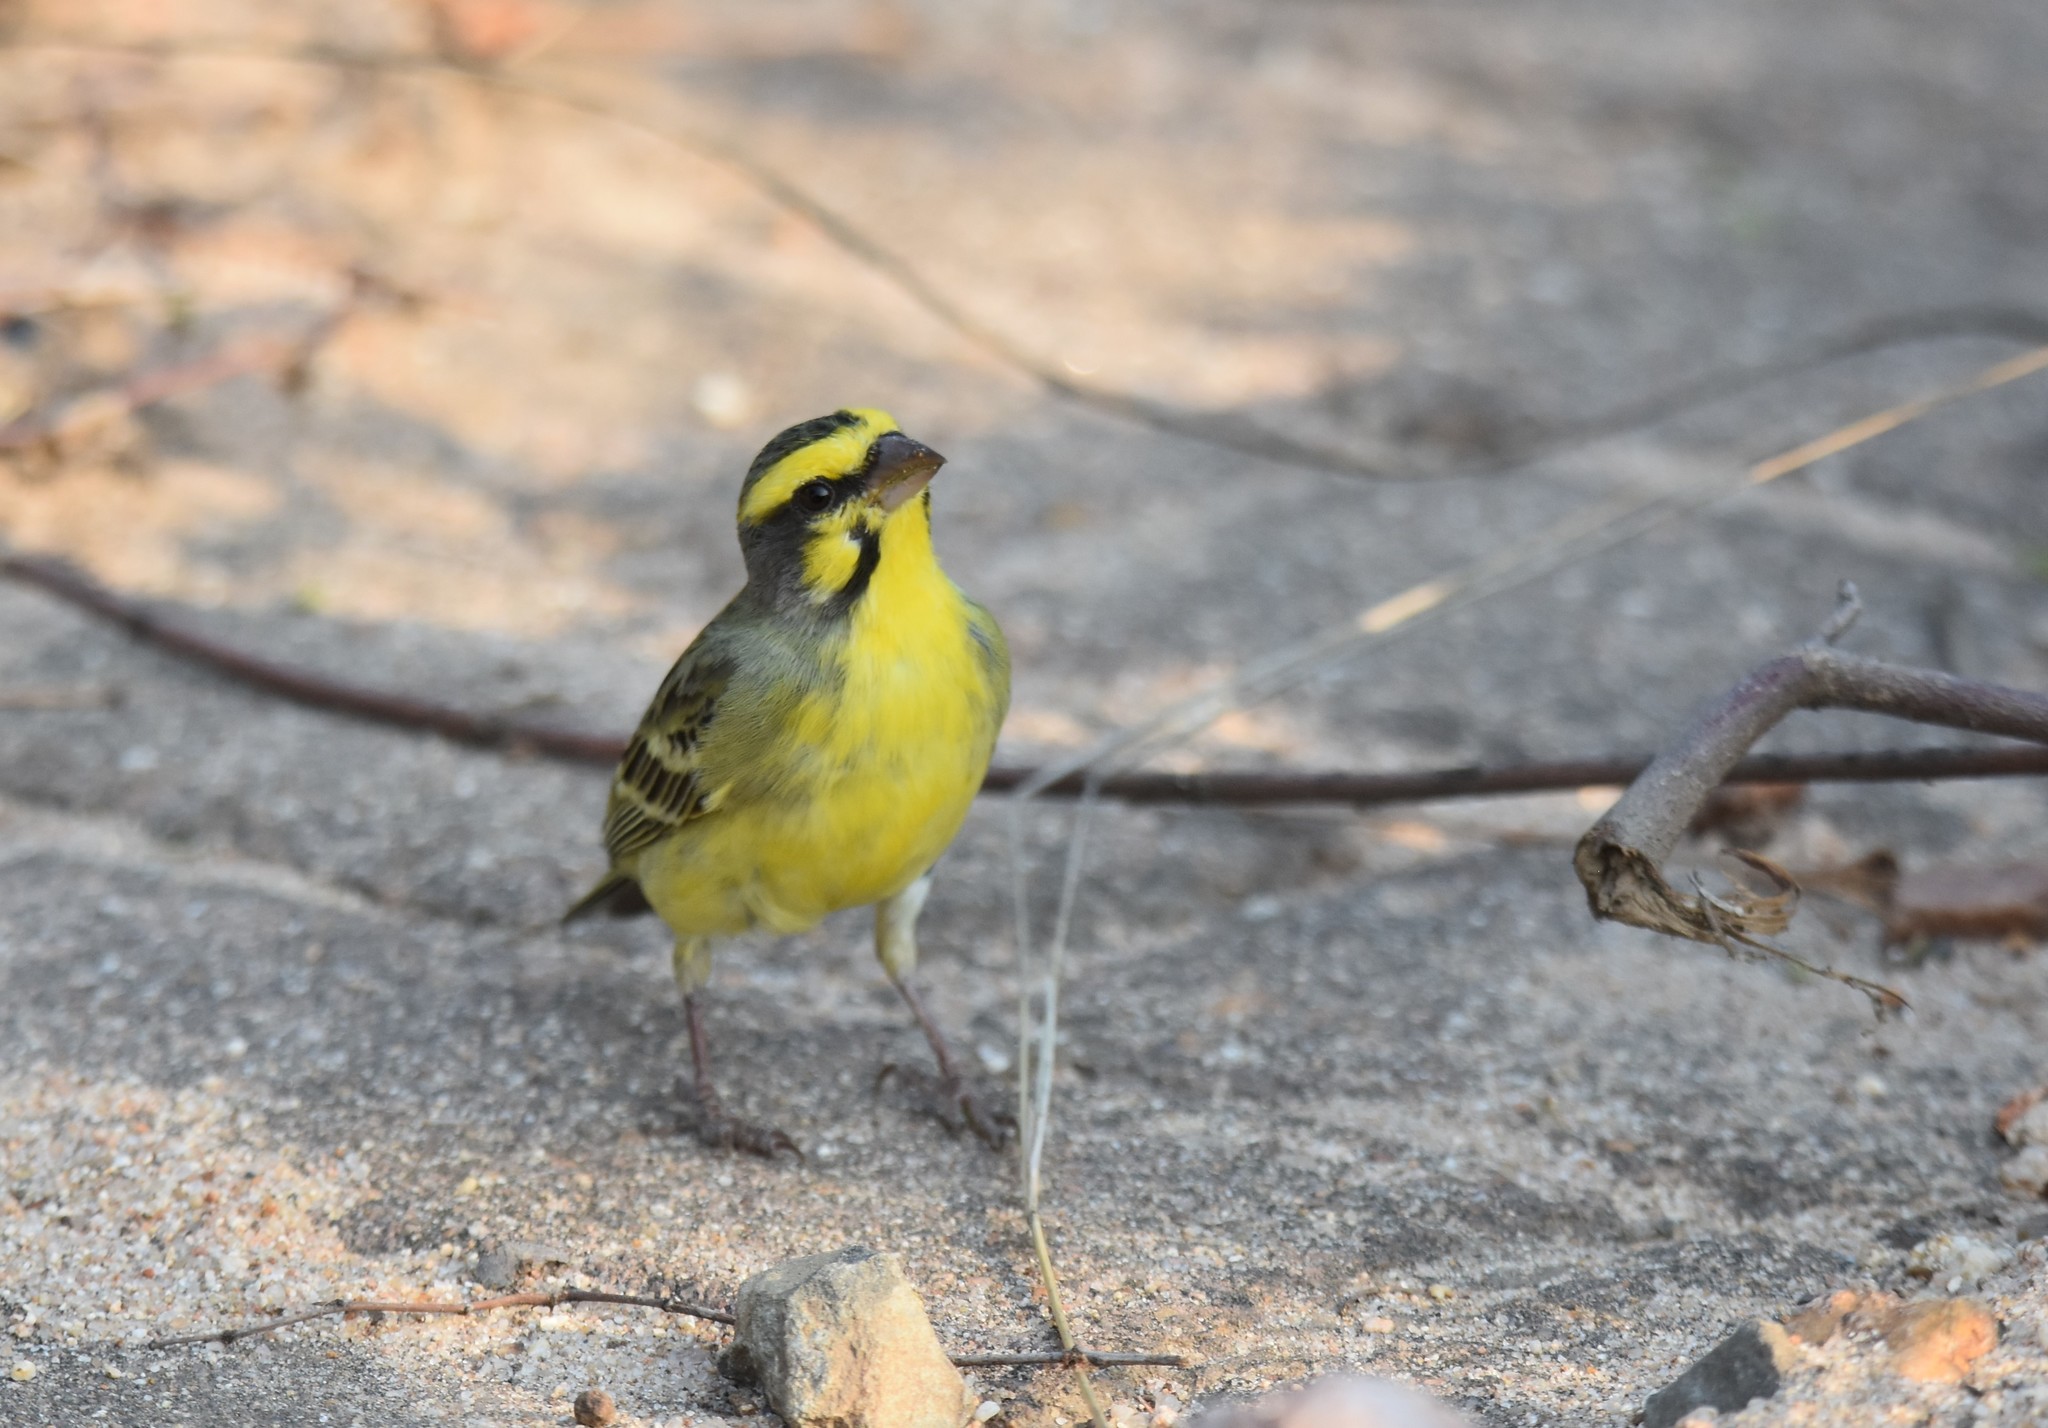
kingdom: Animalia
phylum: Chordata
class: Aves
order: Passeriformes
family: Fringillidae
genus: Crithagra
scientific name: Crithagra mozambica
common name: Yellow-fronted canary
